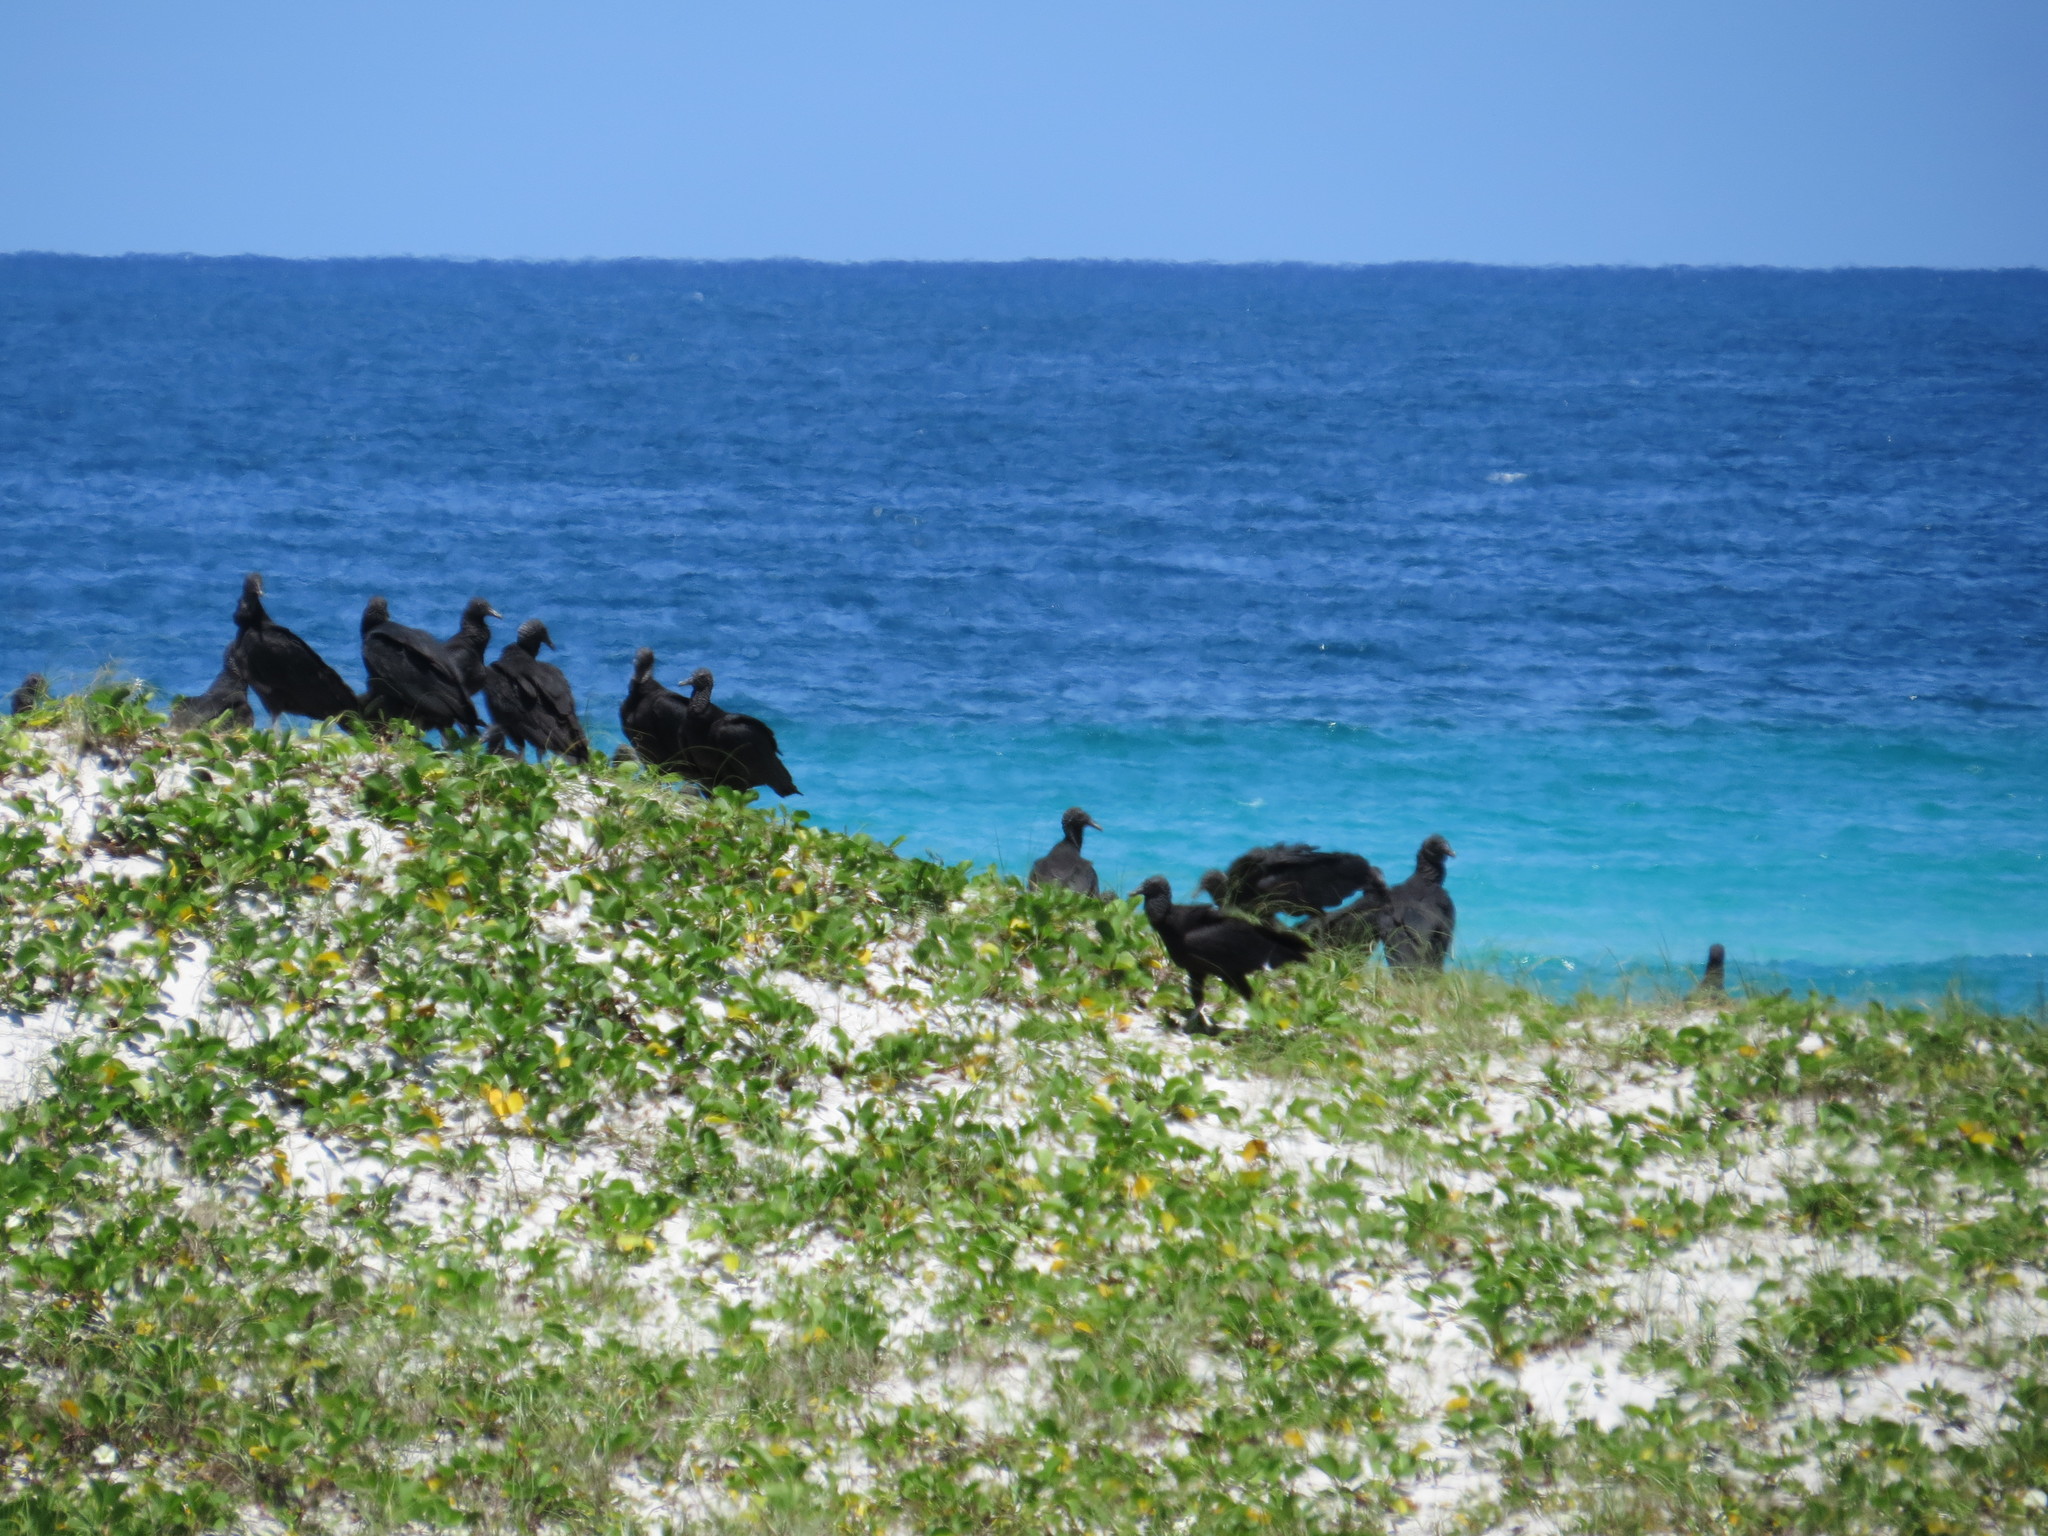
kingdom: Animalia
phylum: Chordata
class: Aves
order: Accipitriformes
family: Cathartidae
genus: Coragyps
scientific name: Coragyps atratus
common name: Black vulture
